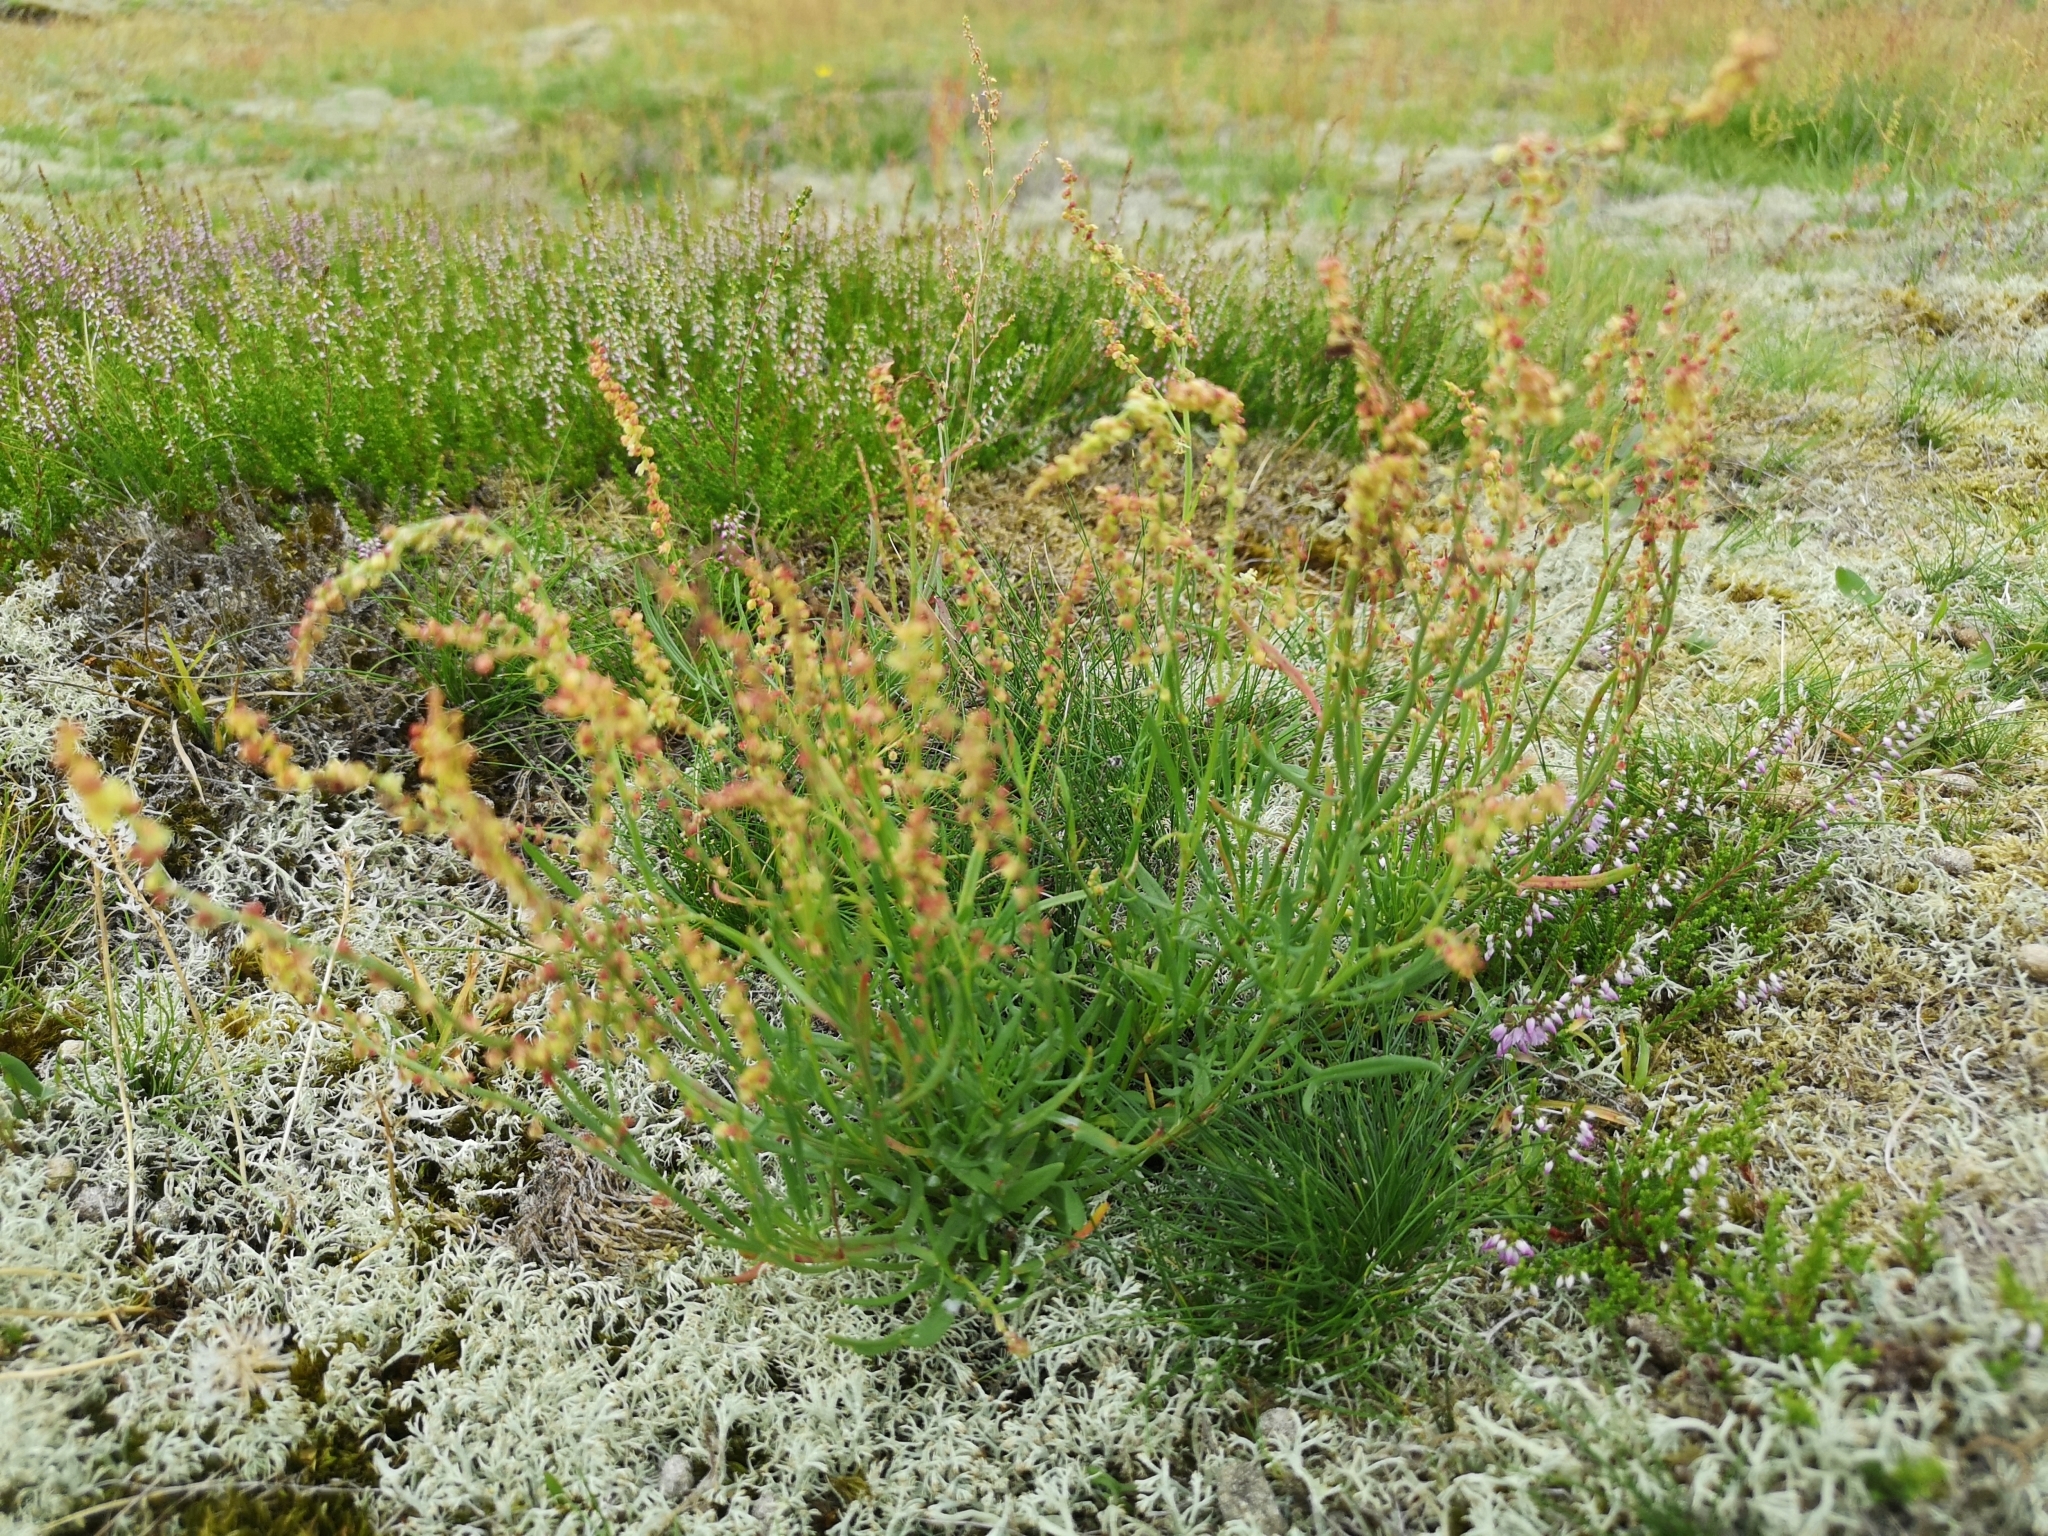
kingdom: Plantae
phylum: Tracheophyta
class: Magnoliopsida
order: Caryophyllales
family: Polygonaceae
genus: Rumex
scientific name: Rumex acetosella
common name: Common sheep sorrel
